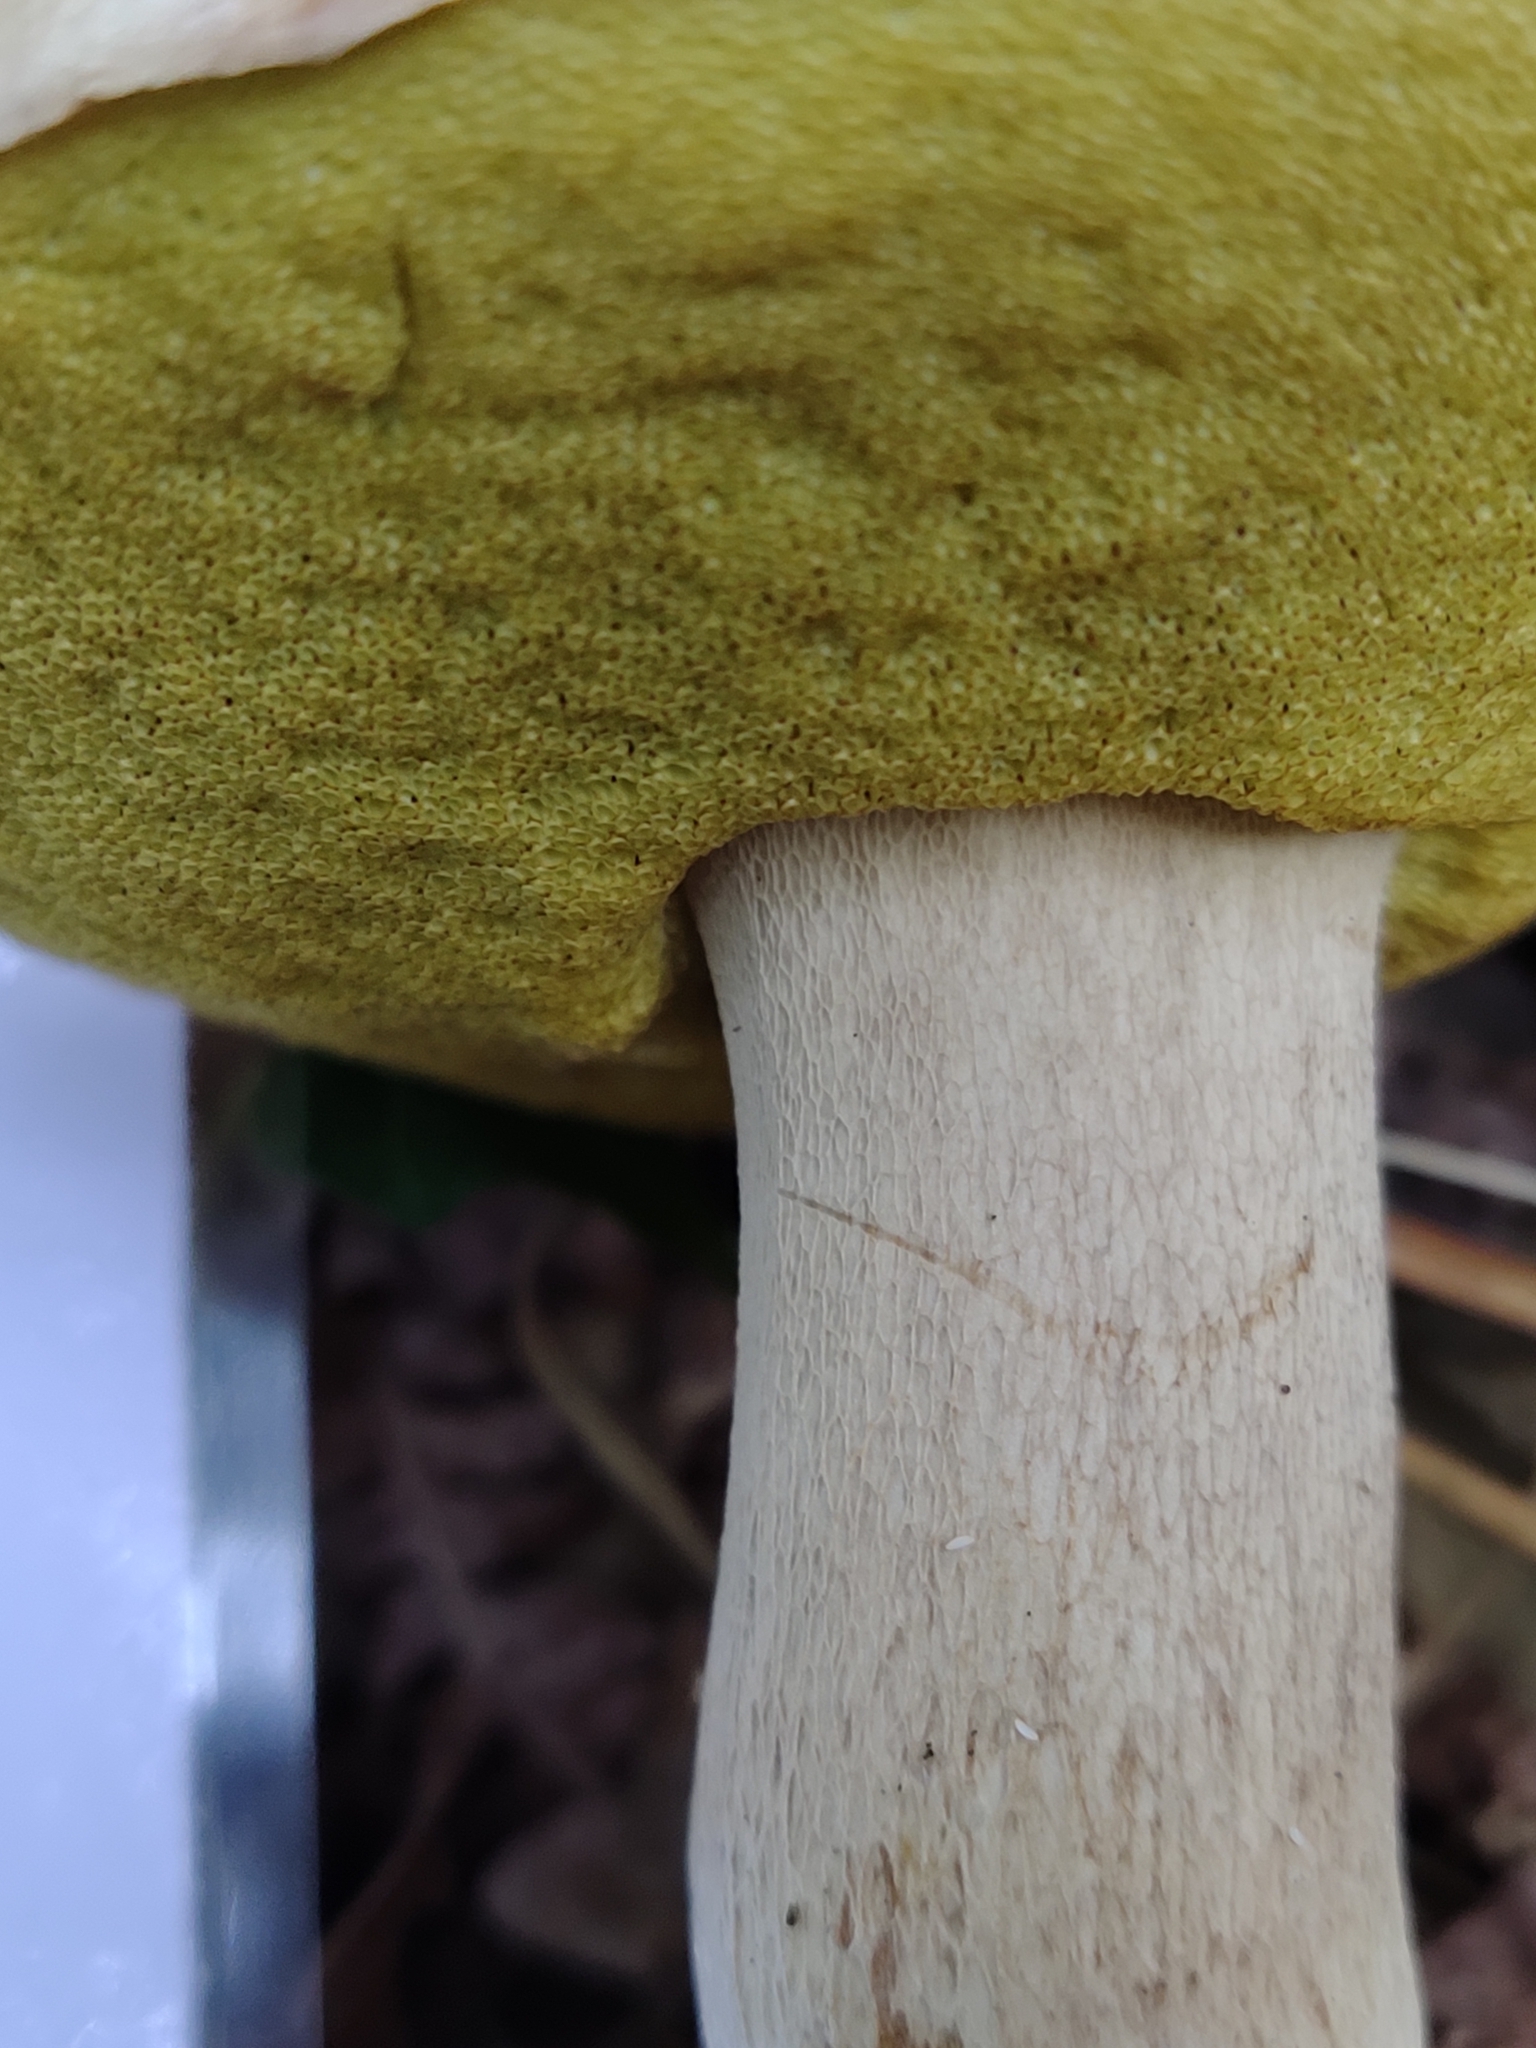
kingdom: Fungi
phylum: Basidiomycota
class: Agaricomycetes
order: Boletales
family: Boletaceae
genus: Boletus
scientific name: Boletus reticulatus
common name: Summer bolete
